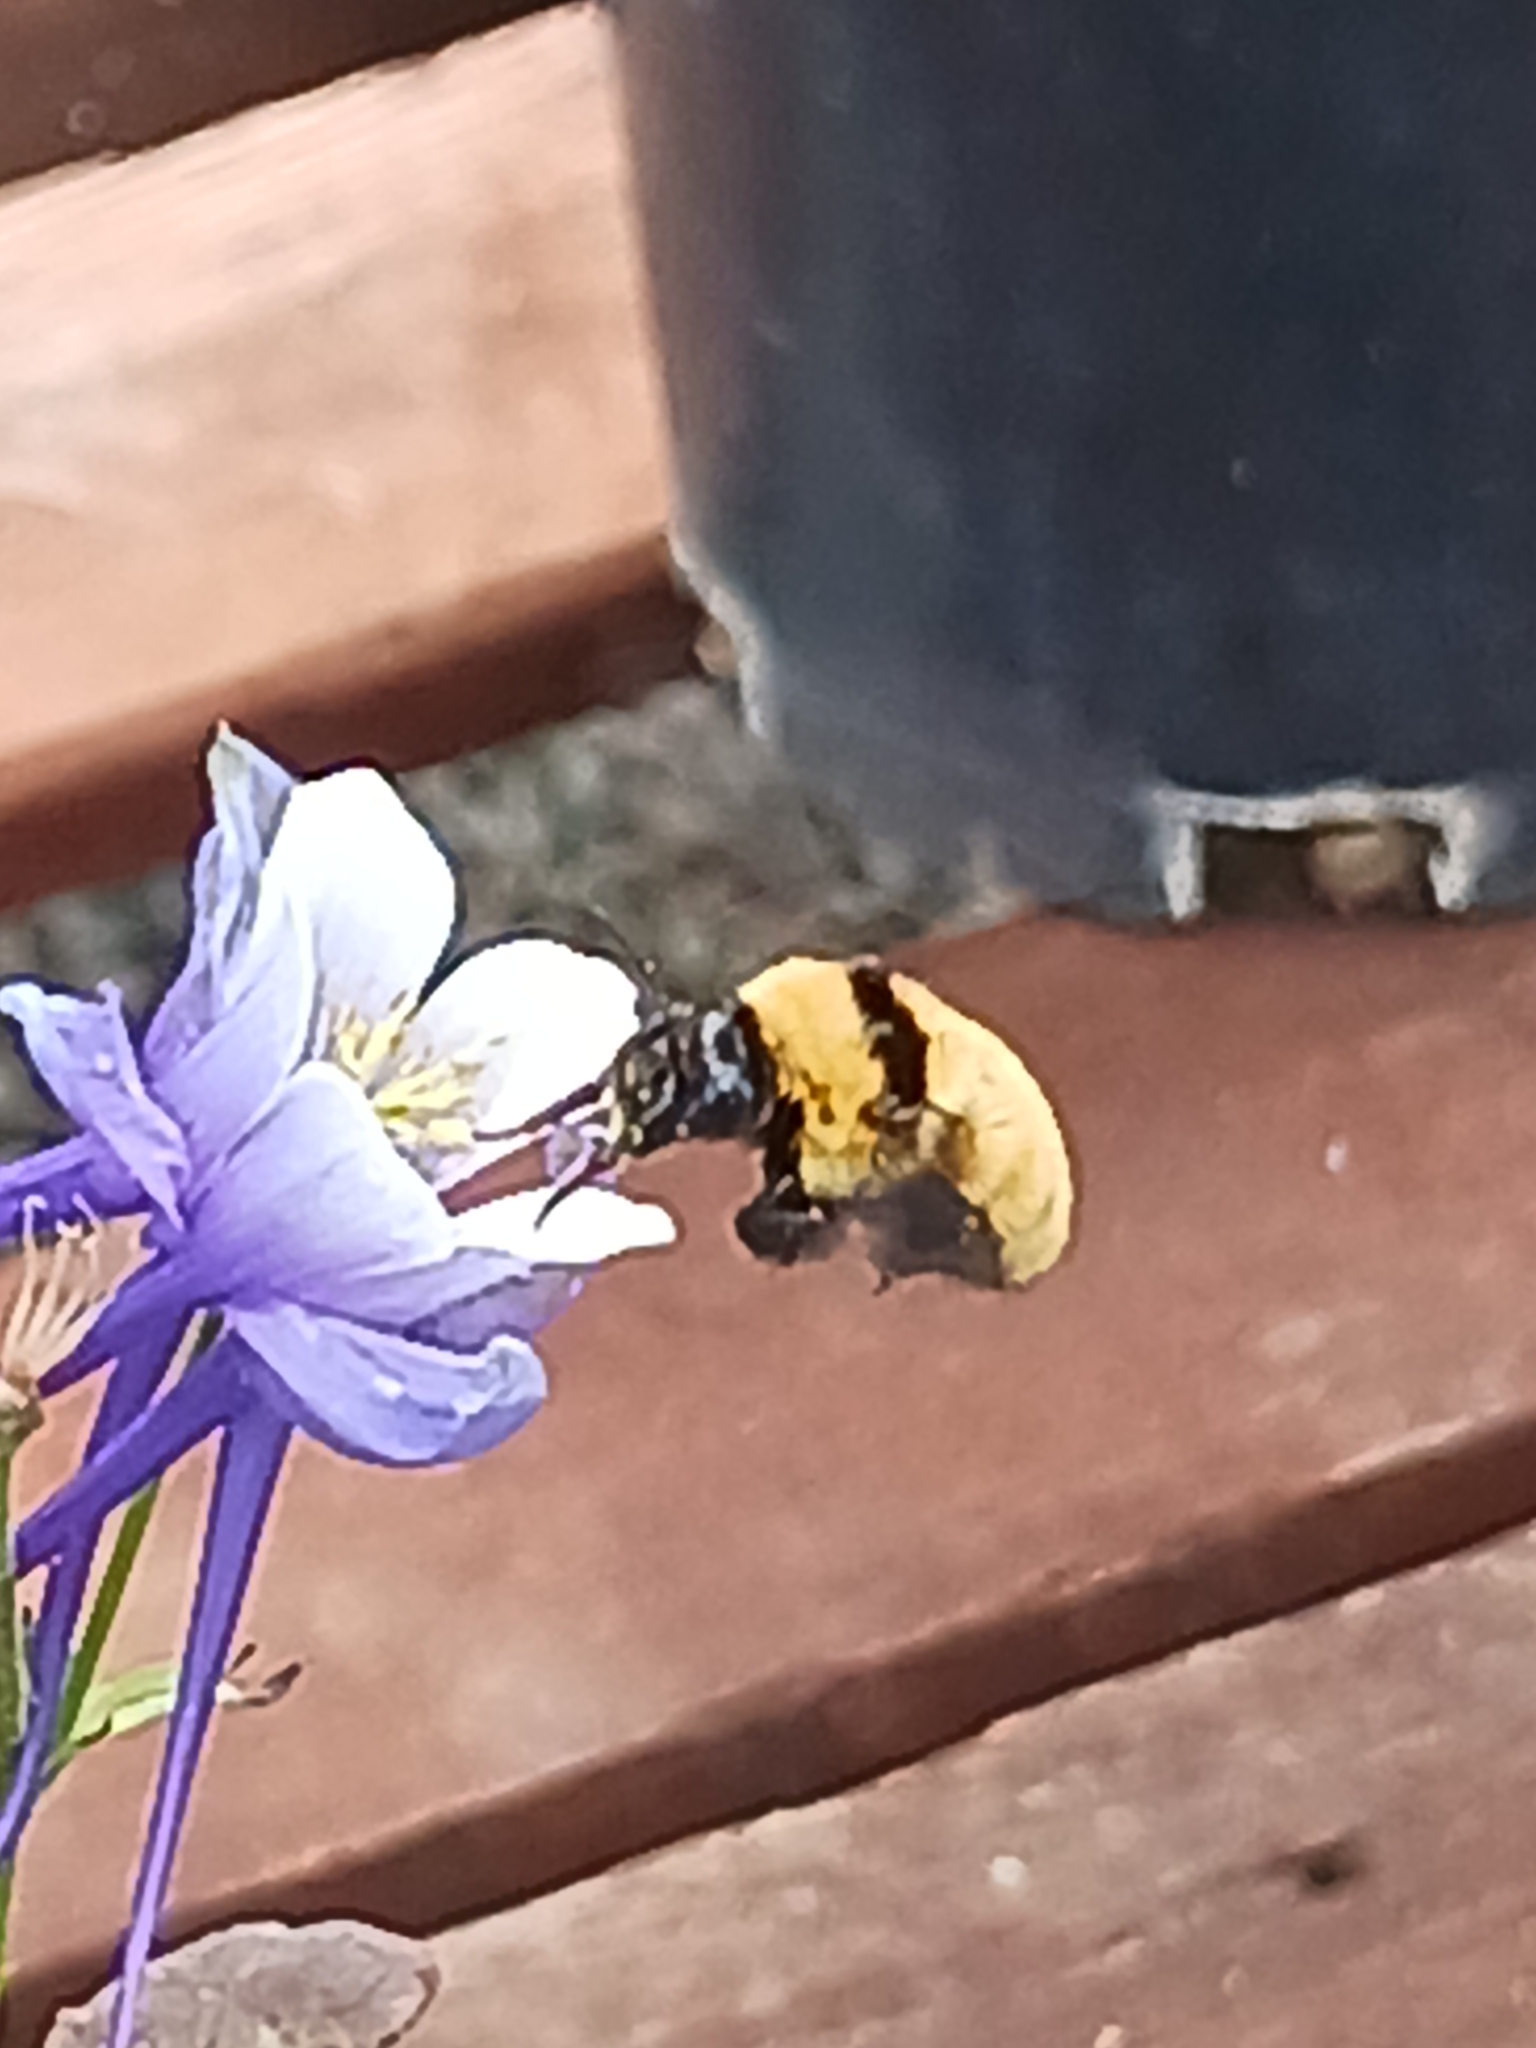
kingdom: Animalia
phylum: Arthropoda
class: Insecta
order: Hymenoptera
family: Apidae
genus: Bombus
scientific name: Bombus fervidus
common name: Yellow bumble bee
